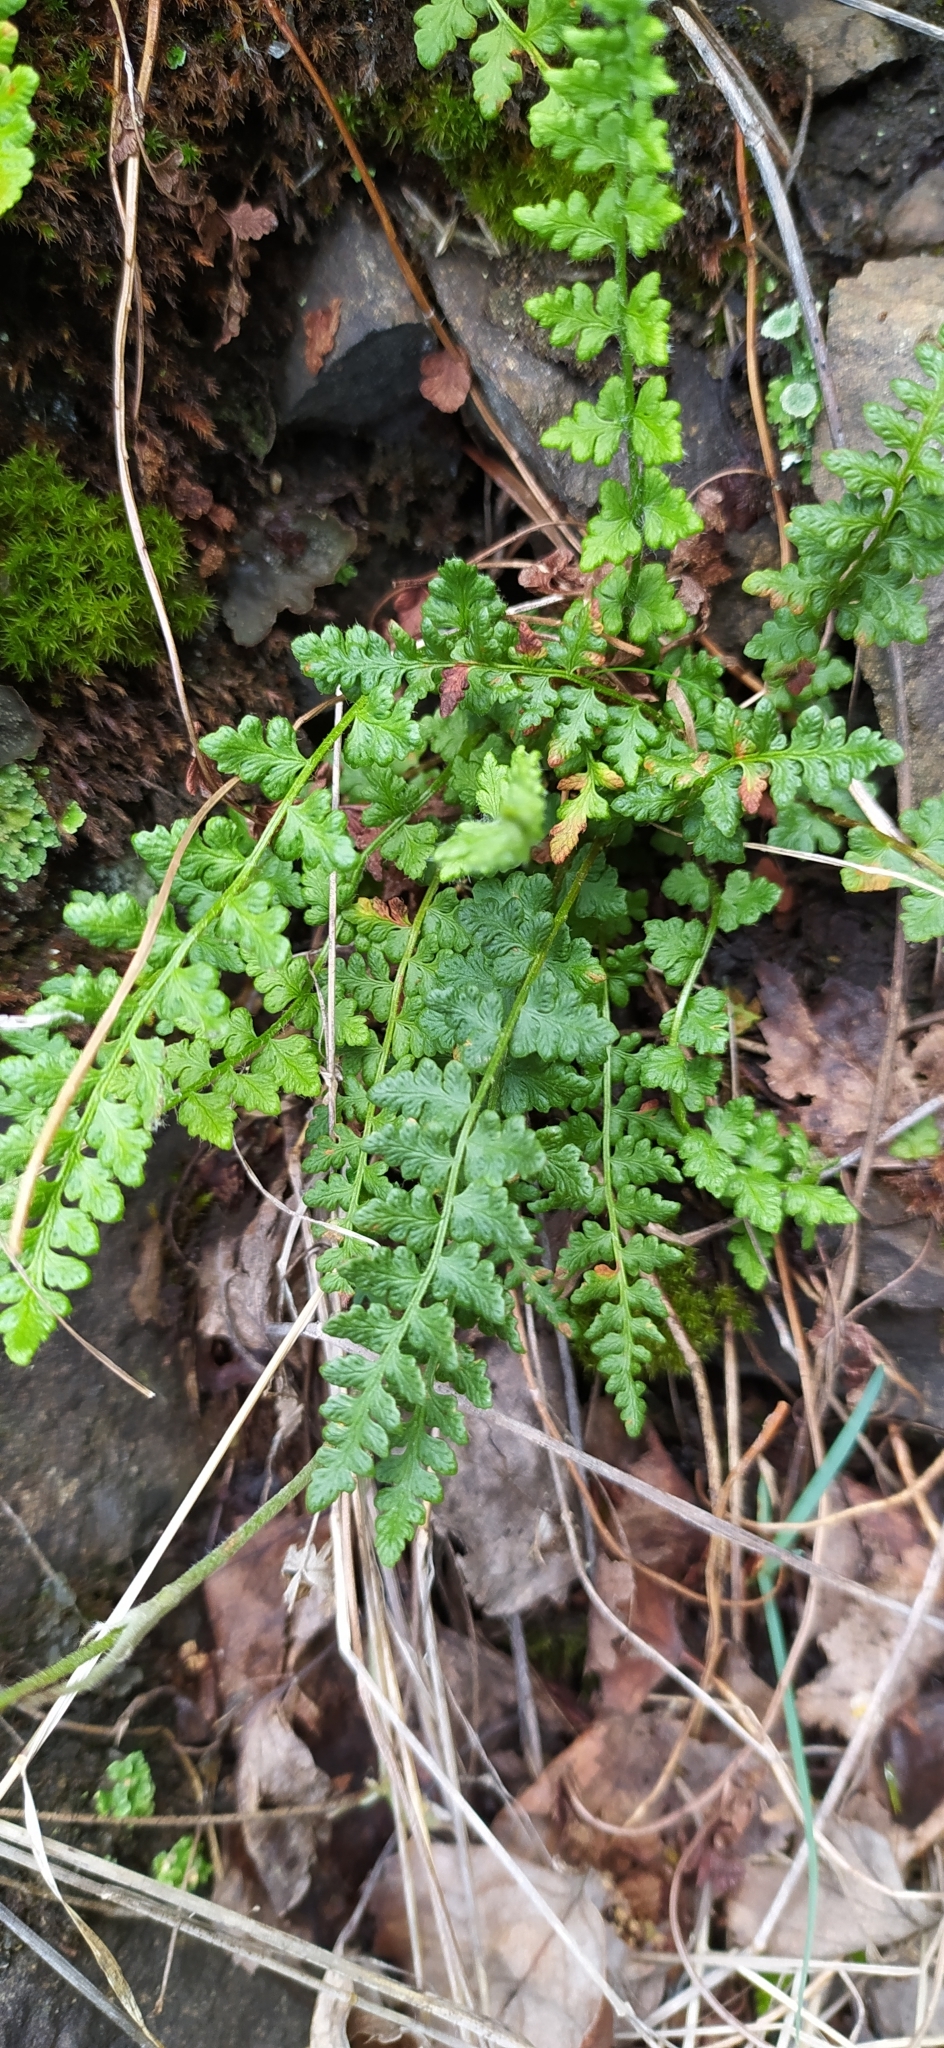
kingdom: Plantae
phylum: Tracheophyta
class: Polypodiopsida
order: Polypodiales
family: Woodsiaceae
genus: Woodsia
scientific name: Woodsia alpina
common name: Alpine woodsia
